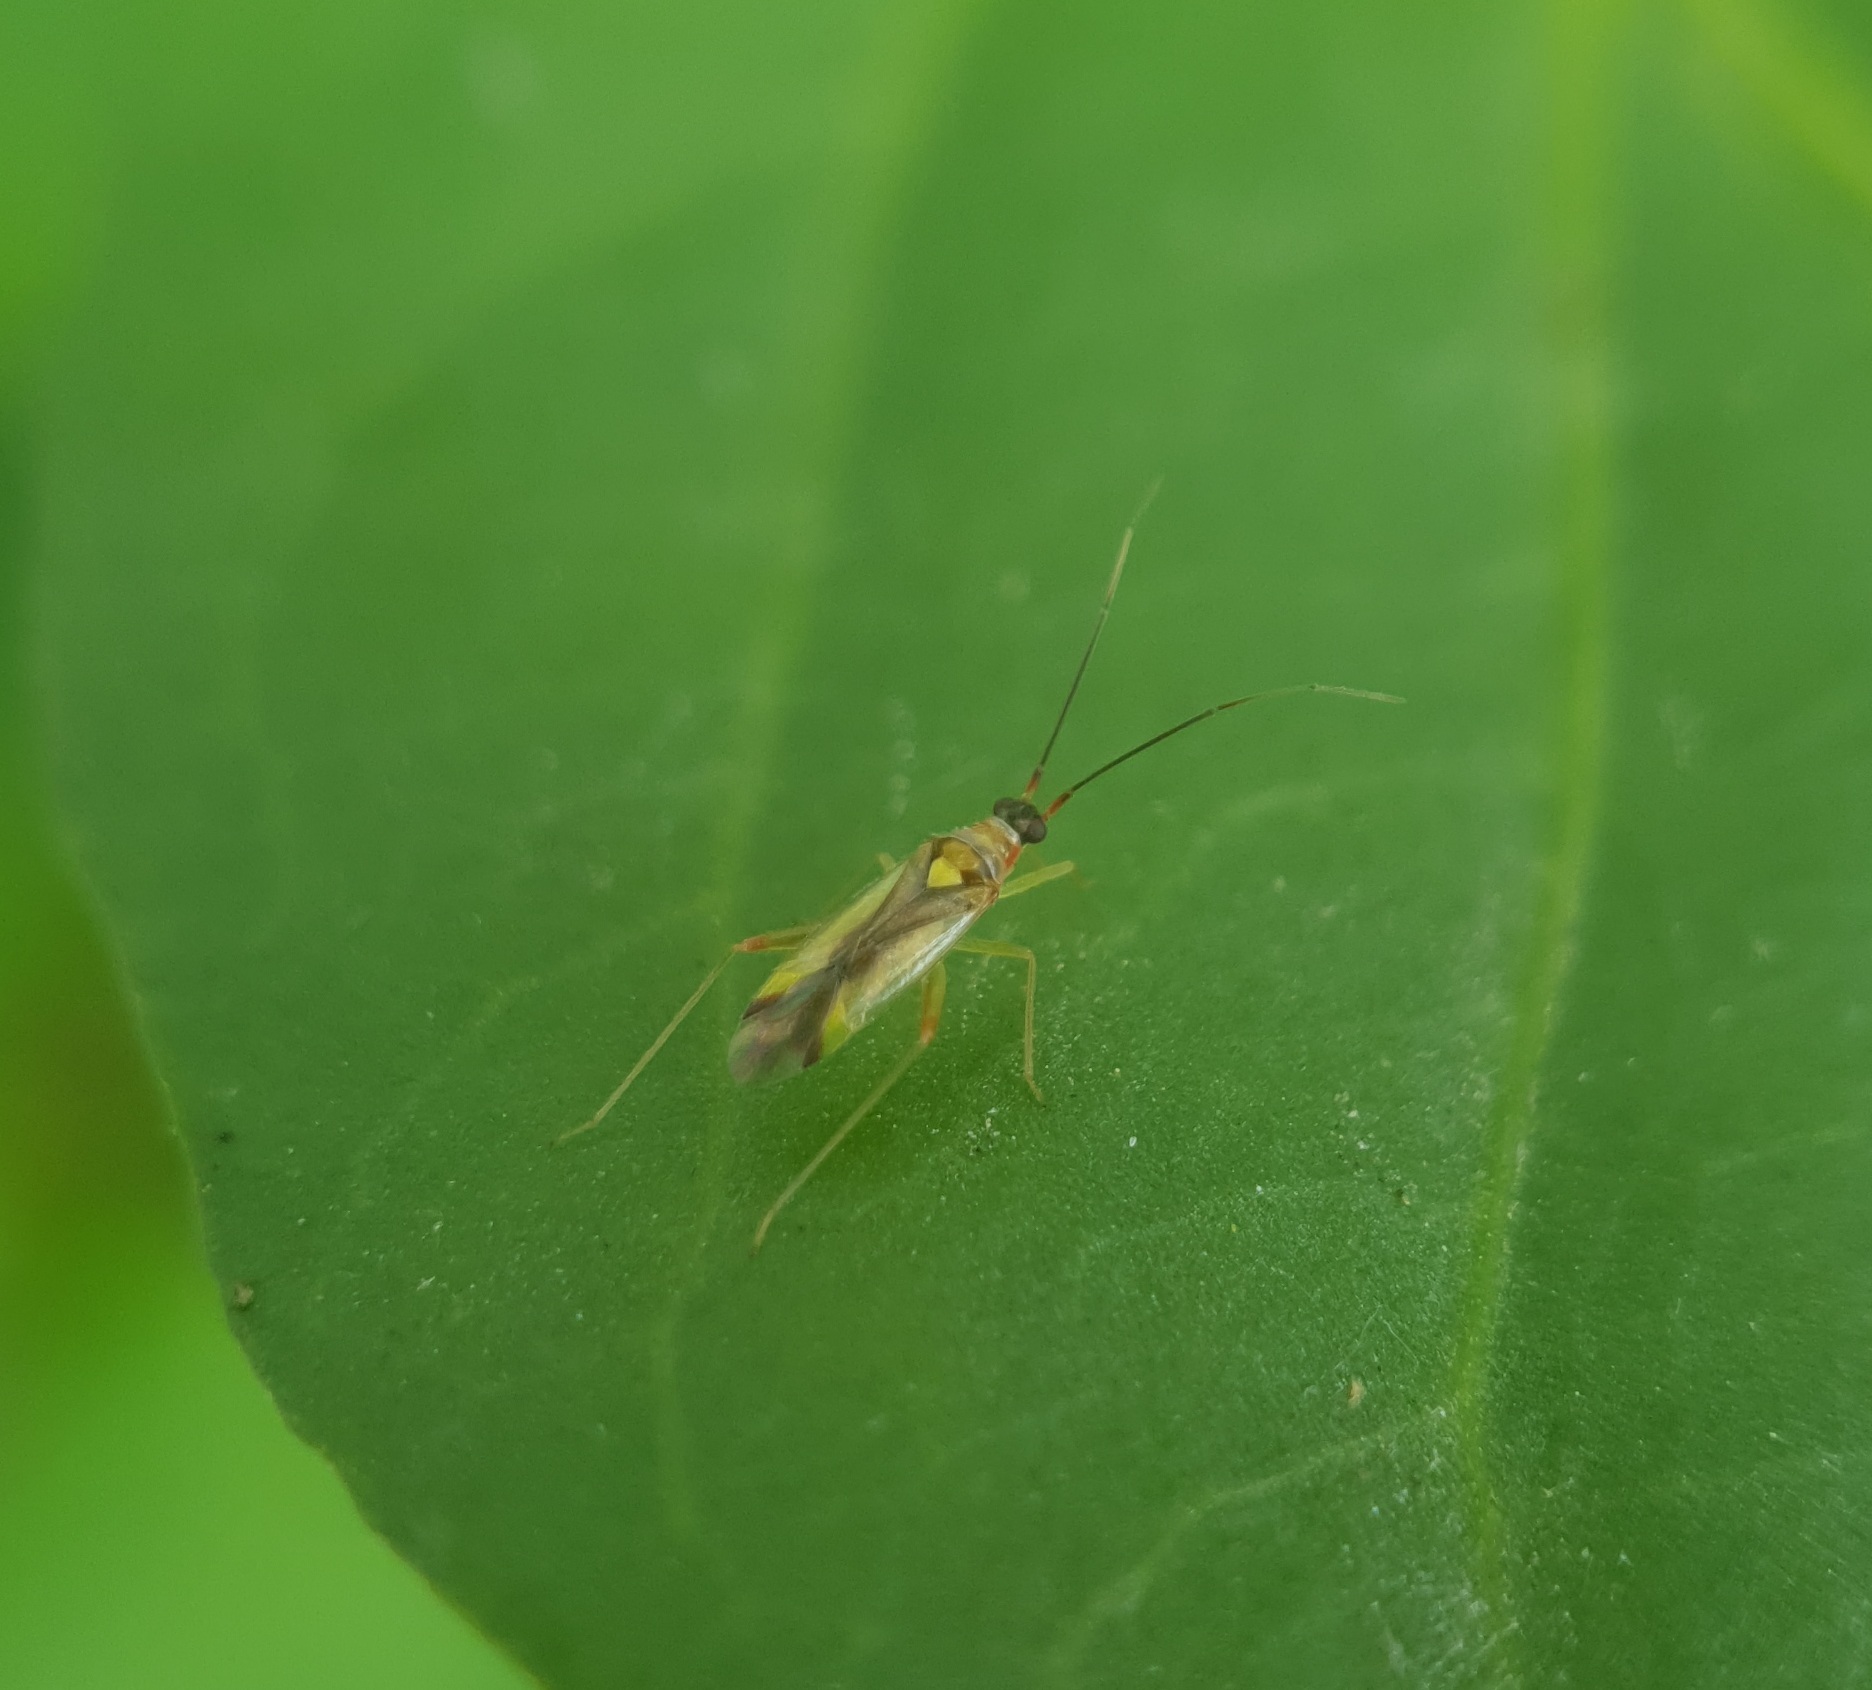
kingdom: Animalia
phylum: Arthropoda
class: Insecta
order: Hemiptera
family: Miridae
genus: Campyloneura
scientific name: Campyloneura virgula
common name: Predatory bug
